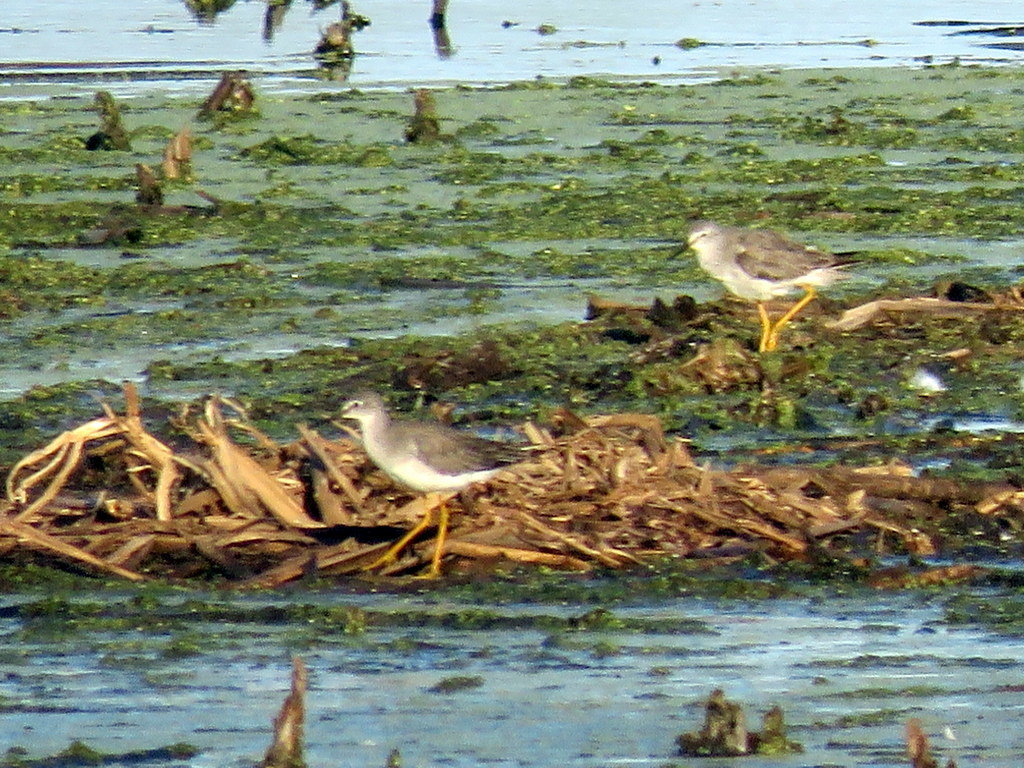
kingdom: Animalia
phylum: Chordata
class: Aves
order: Charadriiformes
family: Scolopacidae
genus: Tringa
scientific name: Tringa flavipes
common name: Lesser yellowlegs
